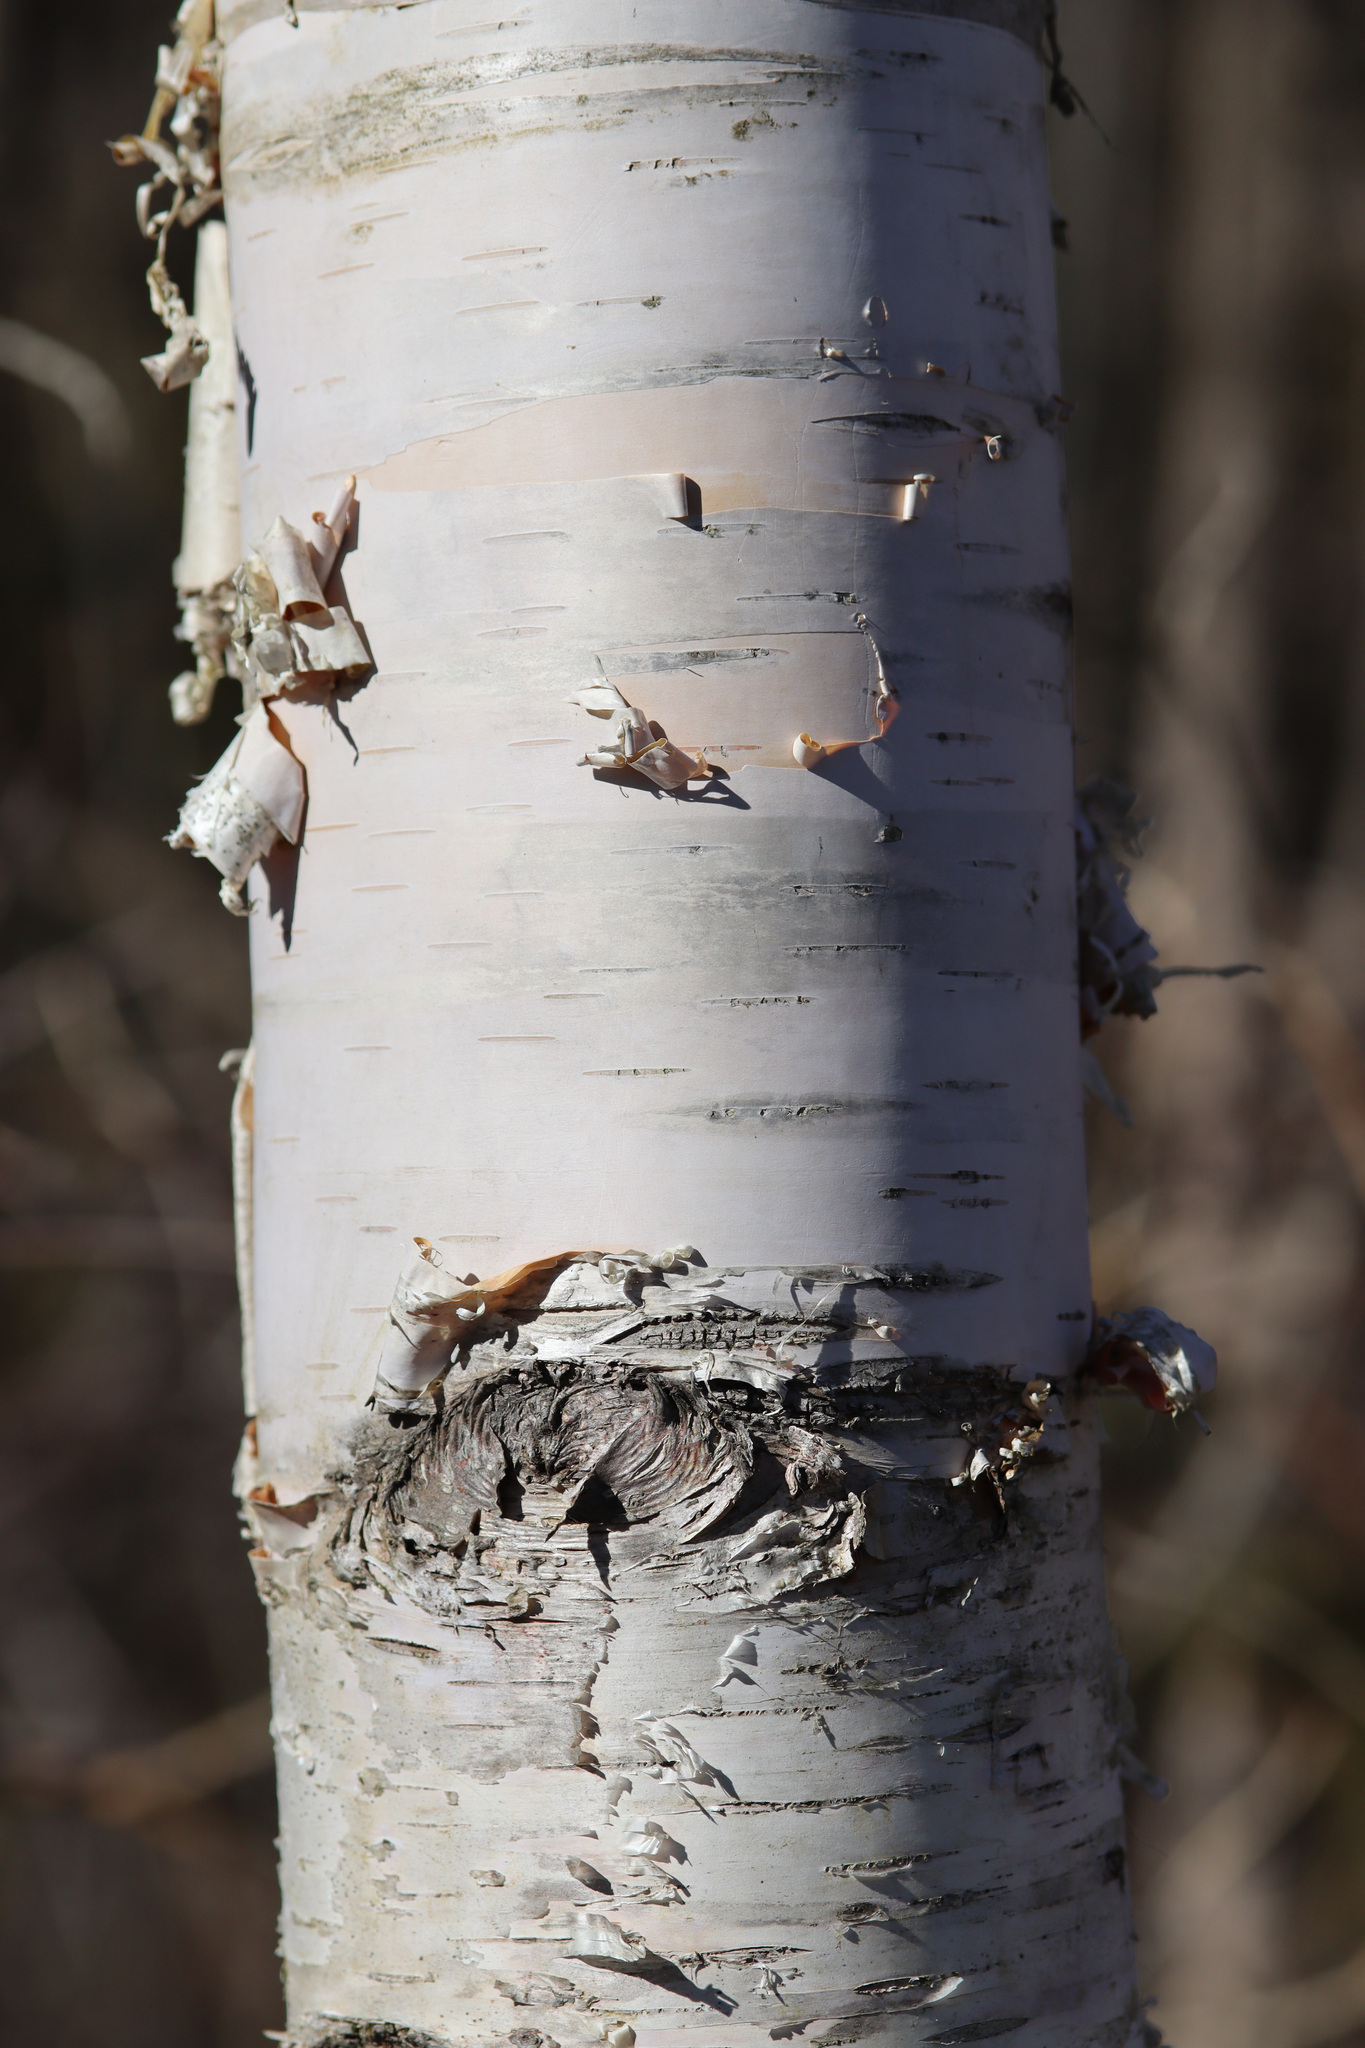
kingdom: Plantae
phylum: Tracheophyta
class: Magnoliopsida
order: Fagales
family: Betulaceae
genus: Betula
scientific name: Betula papyrifera
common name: Paper birch
